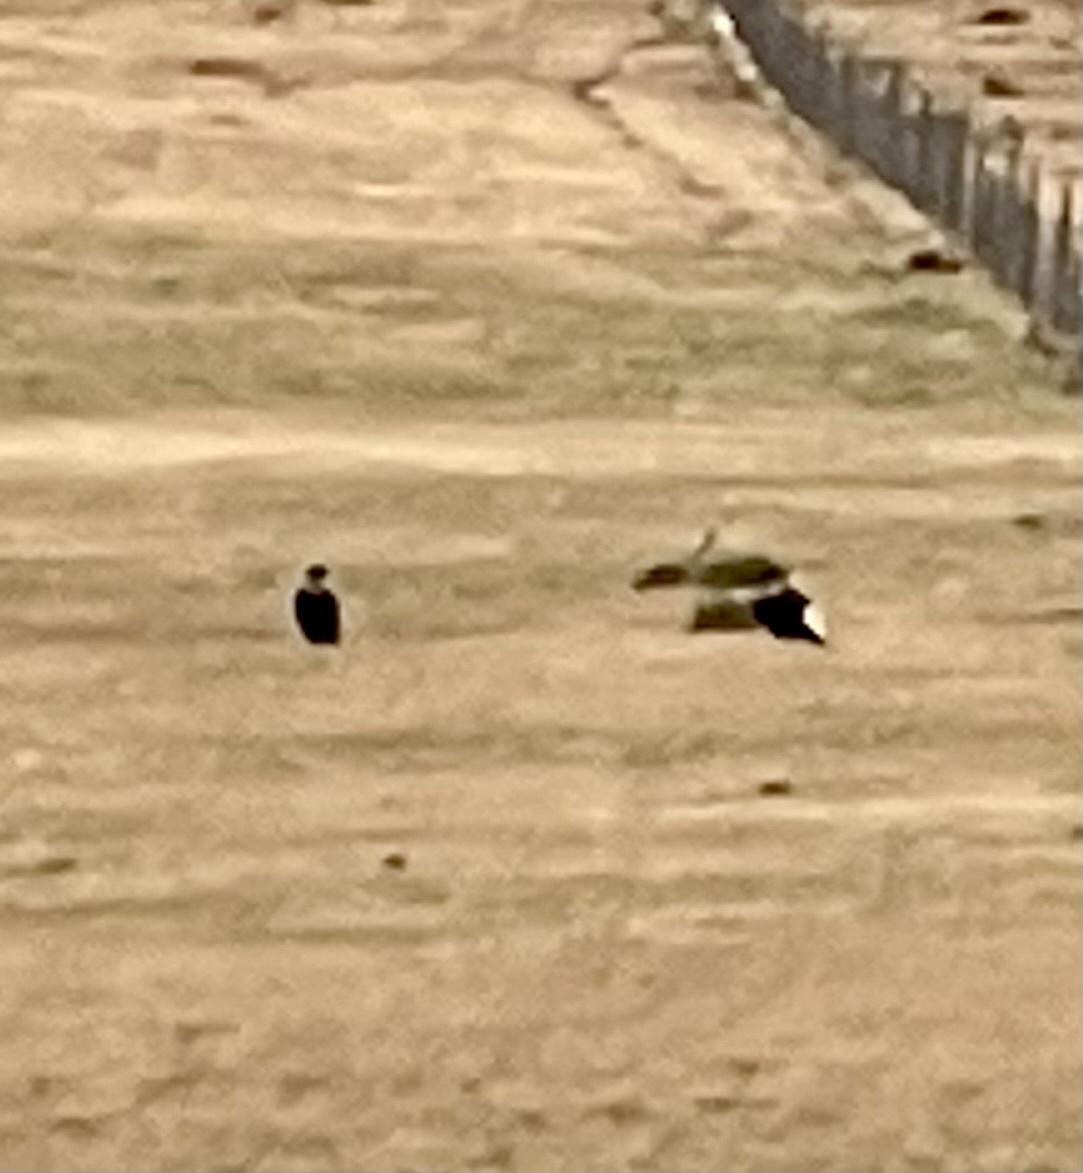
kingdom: Animalia
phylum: Chordata
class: Aves
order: Accipitriformes
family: Cathartidae
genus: Vultur
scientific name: Vultur gryphus
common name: Andean condor
